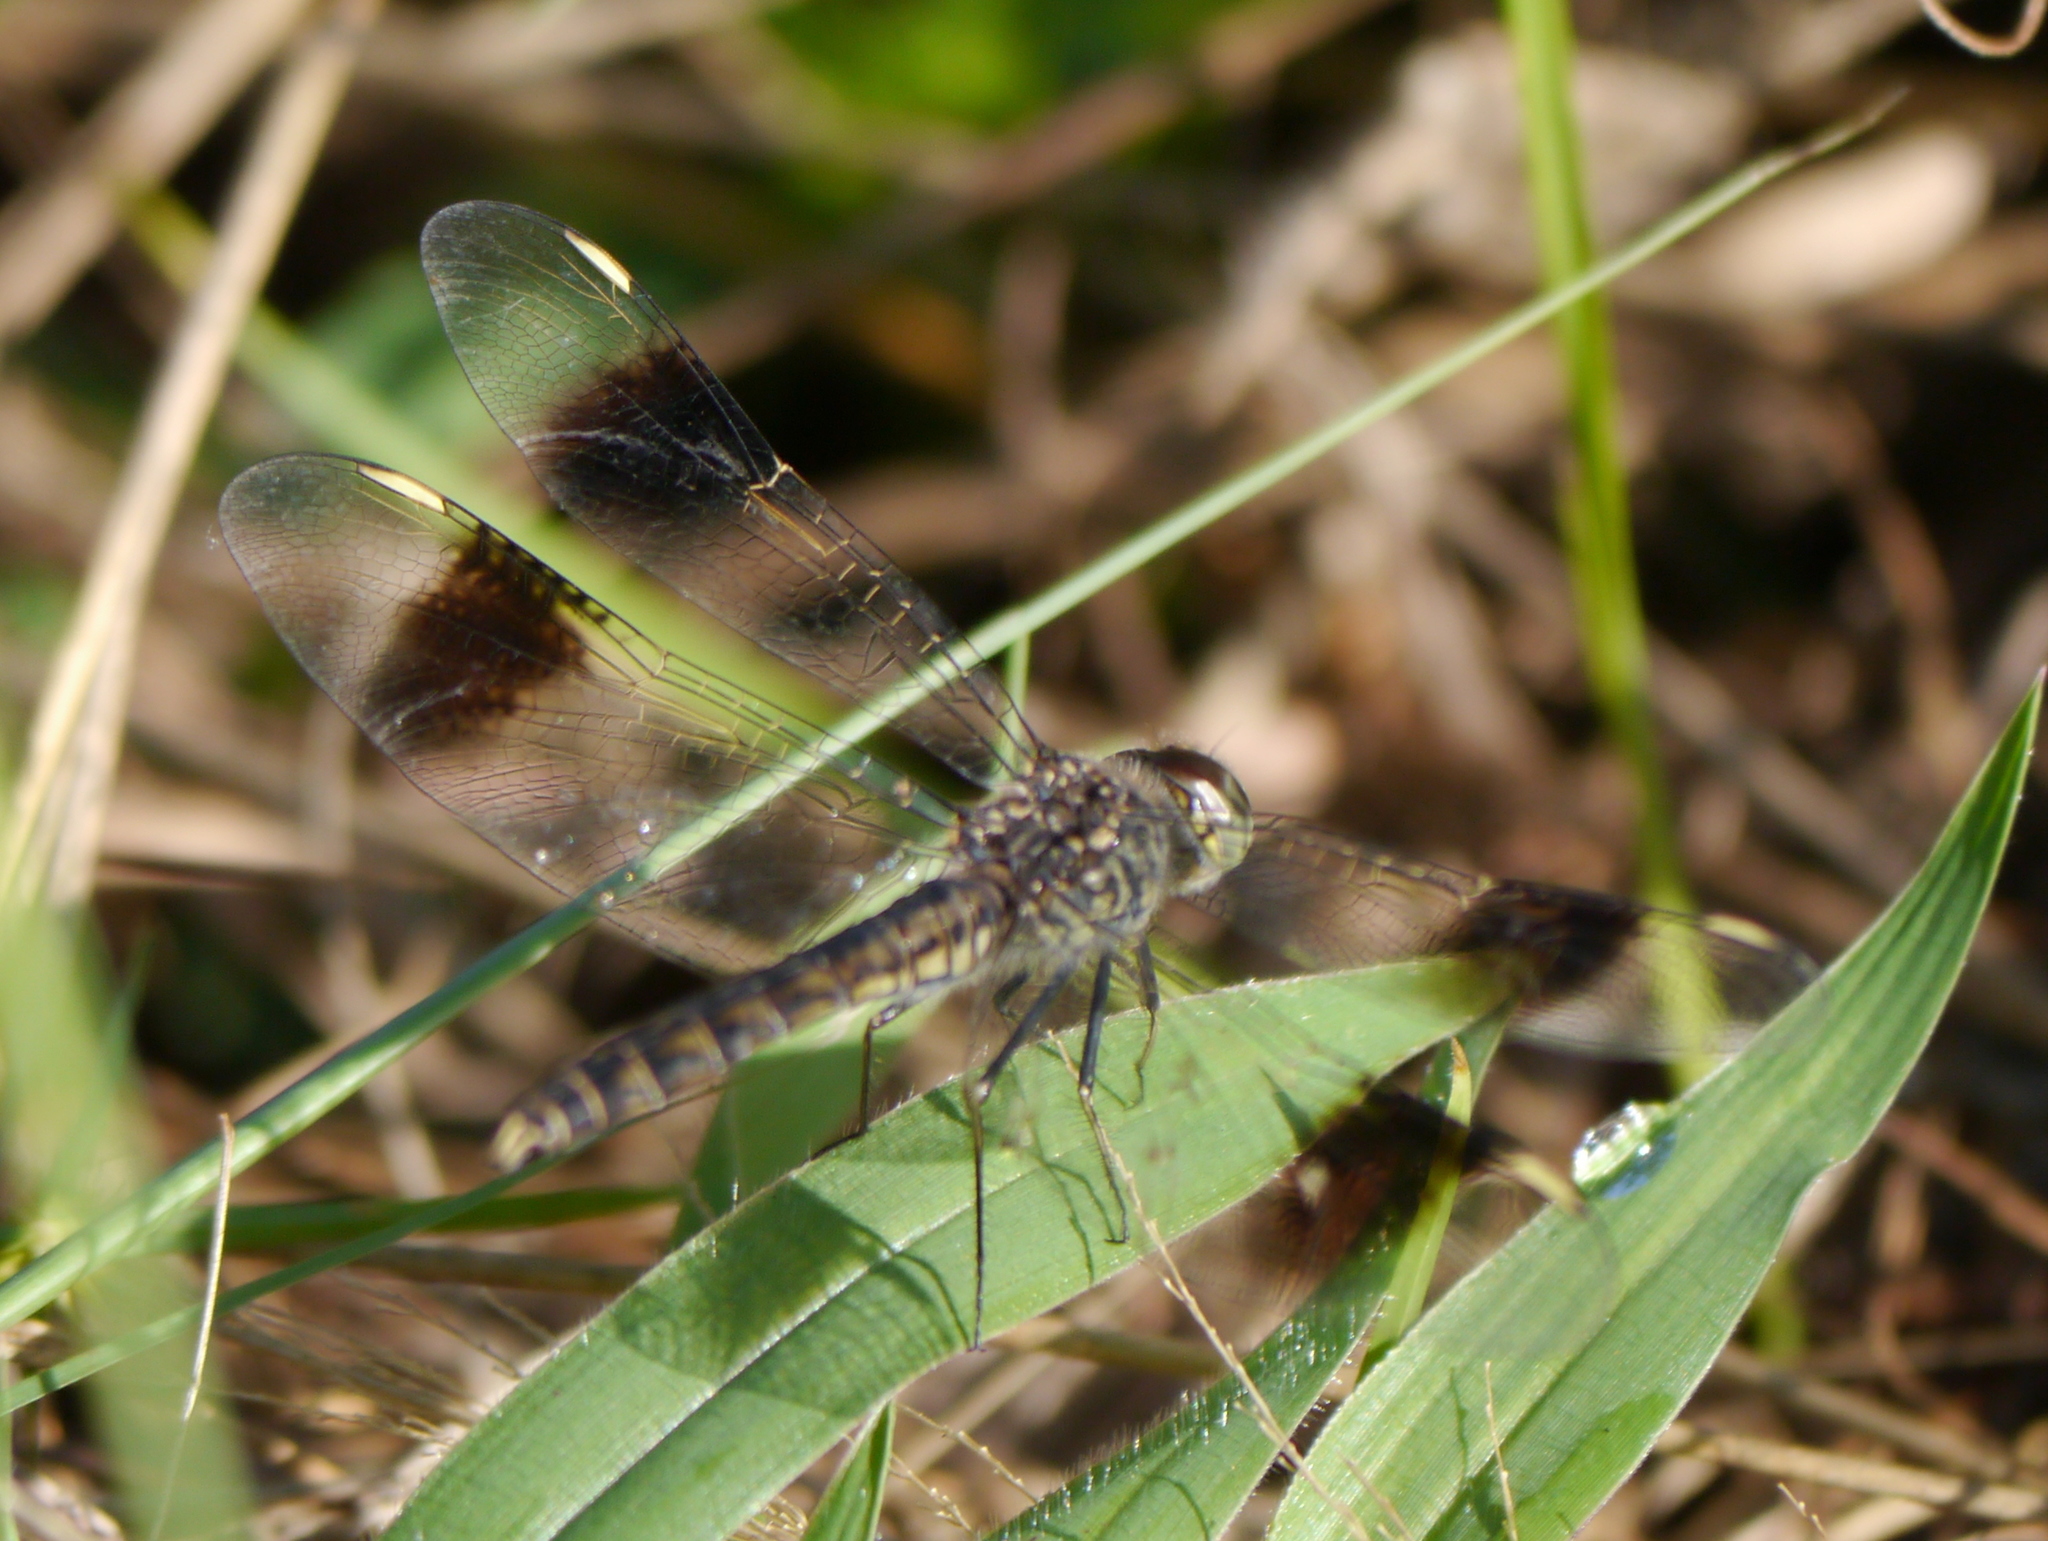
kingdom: Animalia
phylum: Arthropoda
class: Insecta
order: Odonata
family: Libellulidae
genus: Brachythemis
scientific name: Brachythemis impartita
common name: Banded groundling
